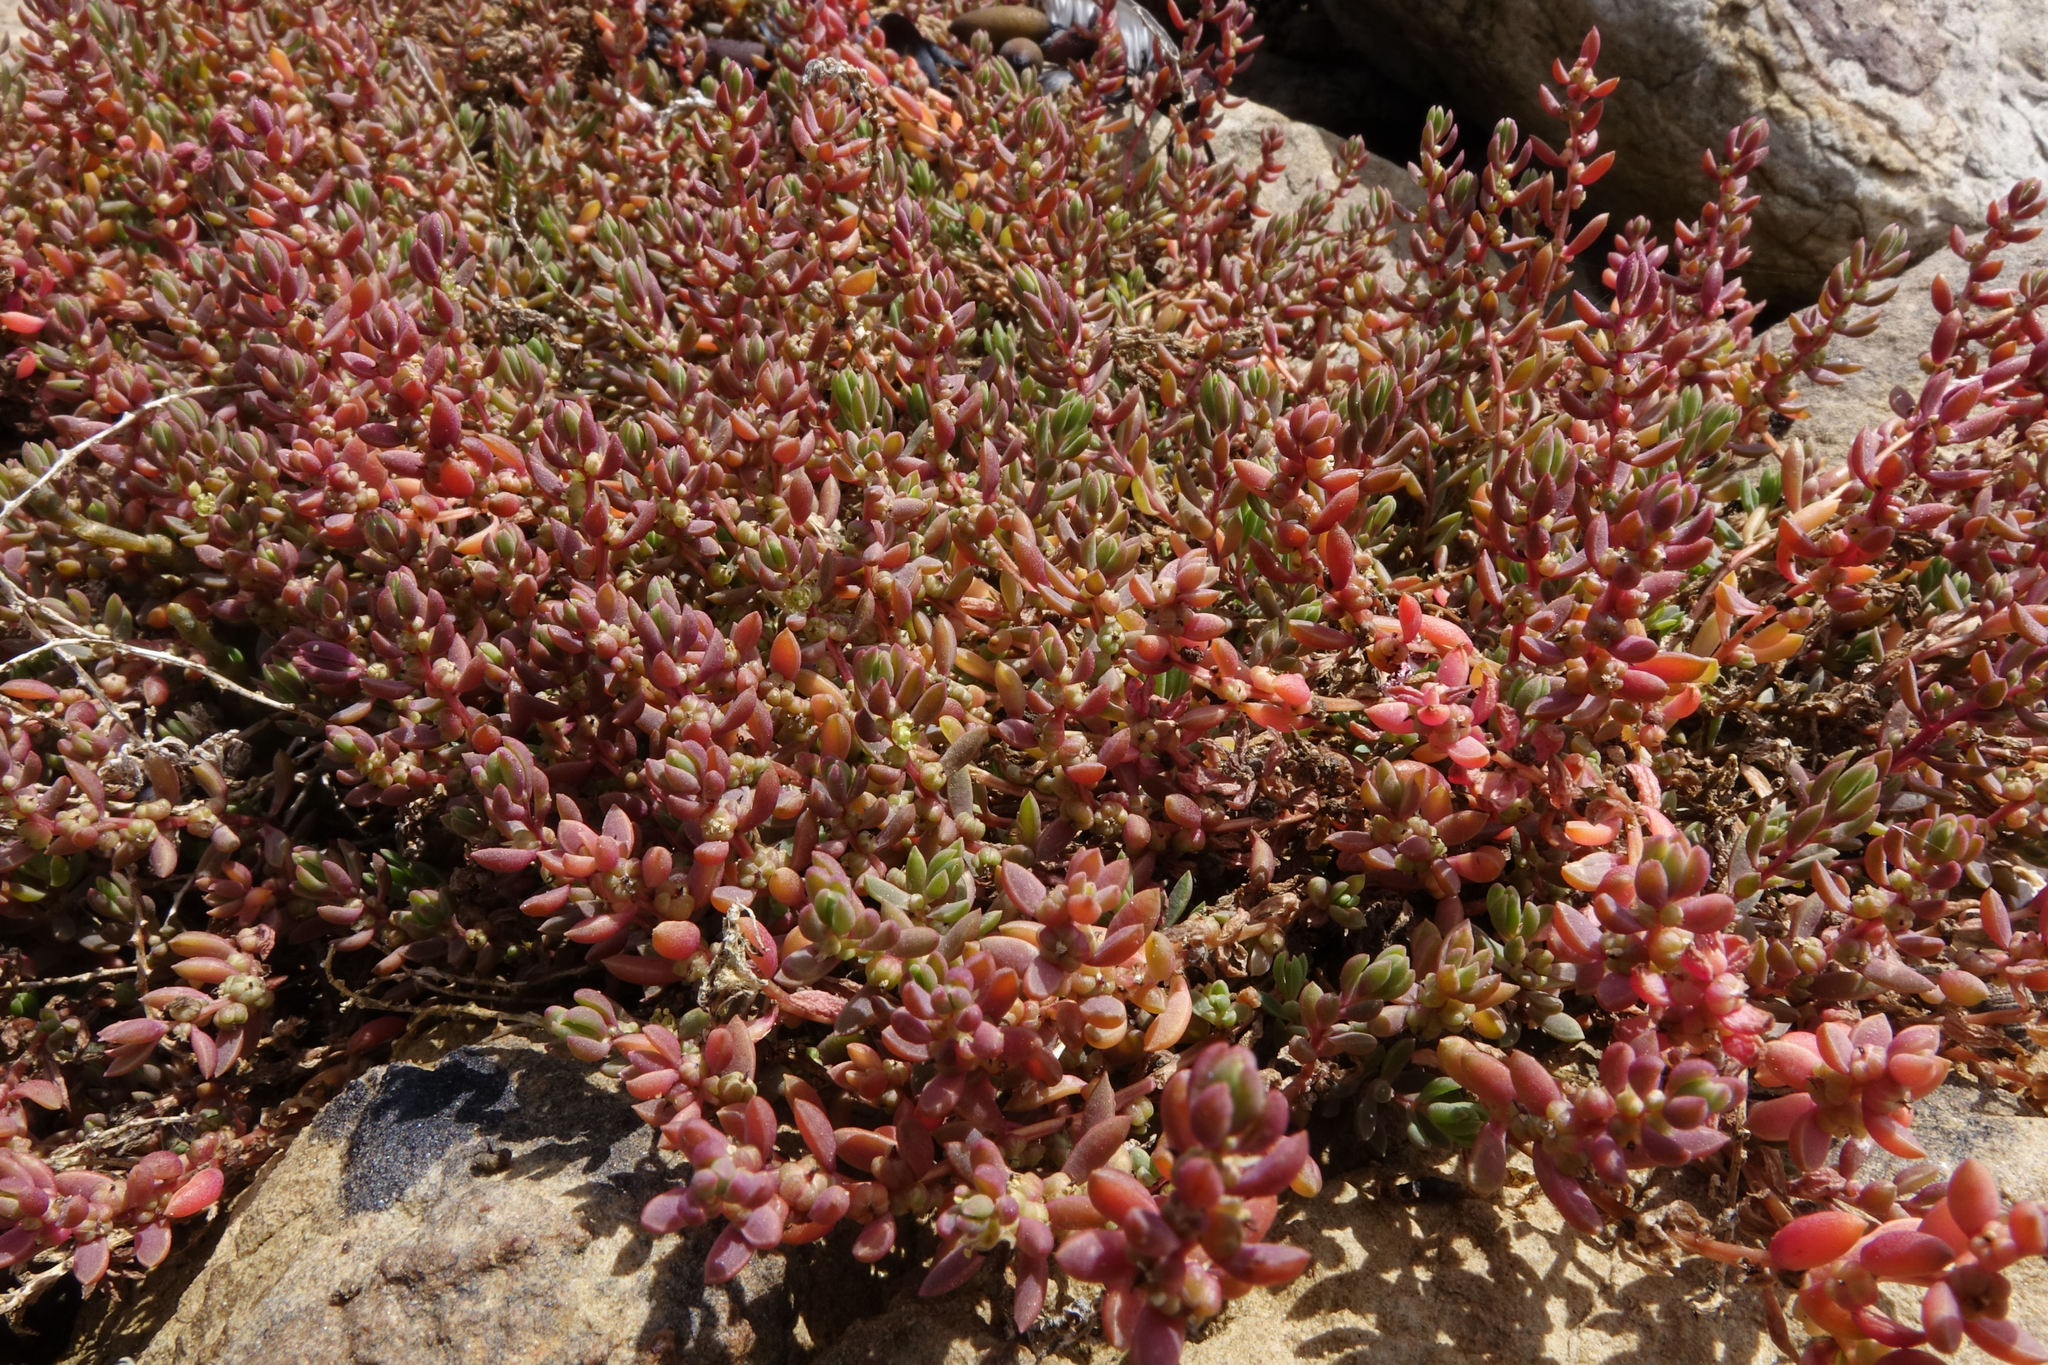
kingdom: Plantae
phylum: Tracheophyta
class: Magnoliopsida
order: Caryophyllales
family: Amaranthaceae
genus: Suaeda
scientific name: Suaeda novae-zelandiae
